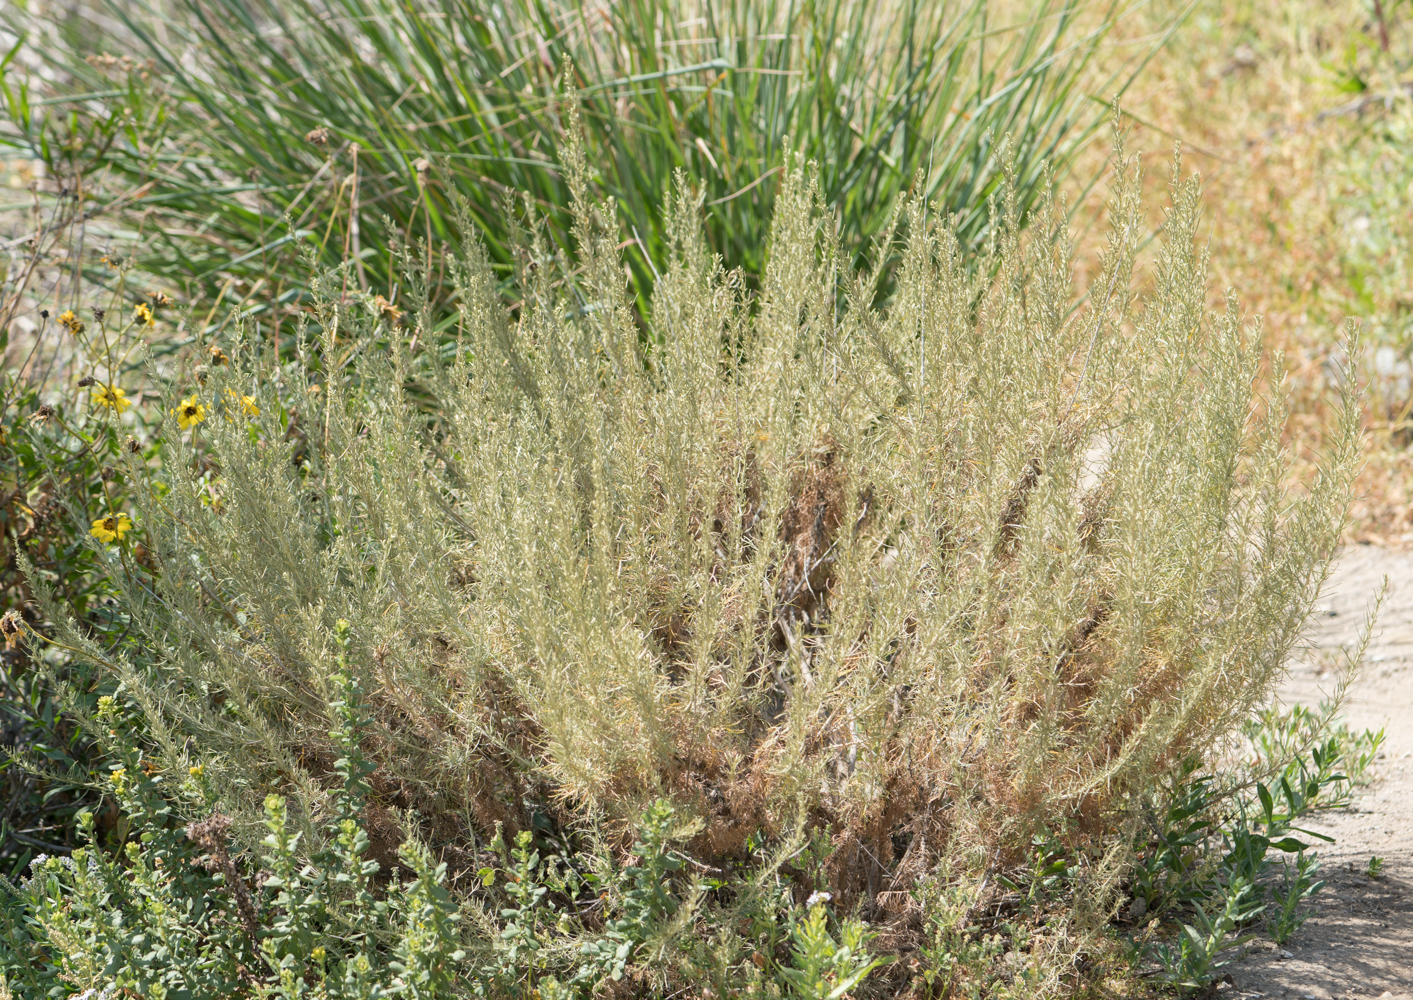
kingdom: Plantae
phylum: Tracheophyta
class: Magnoliopsida
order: Asterales
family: Asteraceae
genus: Artemisia
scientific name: Artemisia californica
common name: California sagebrush
